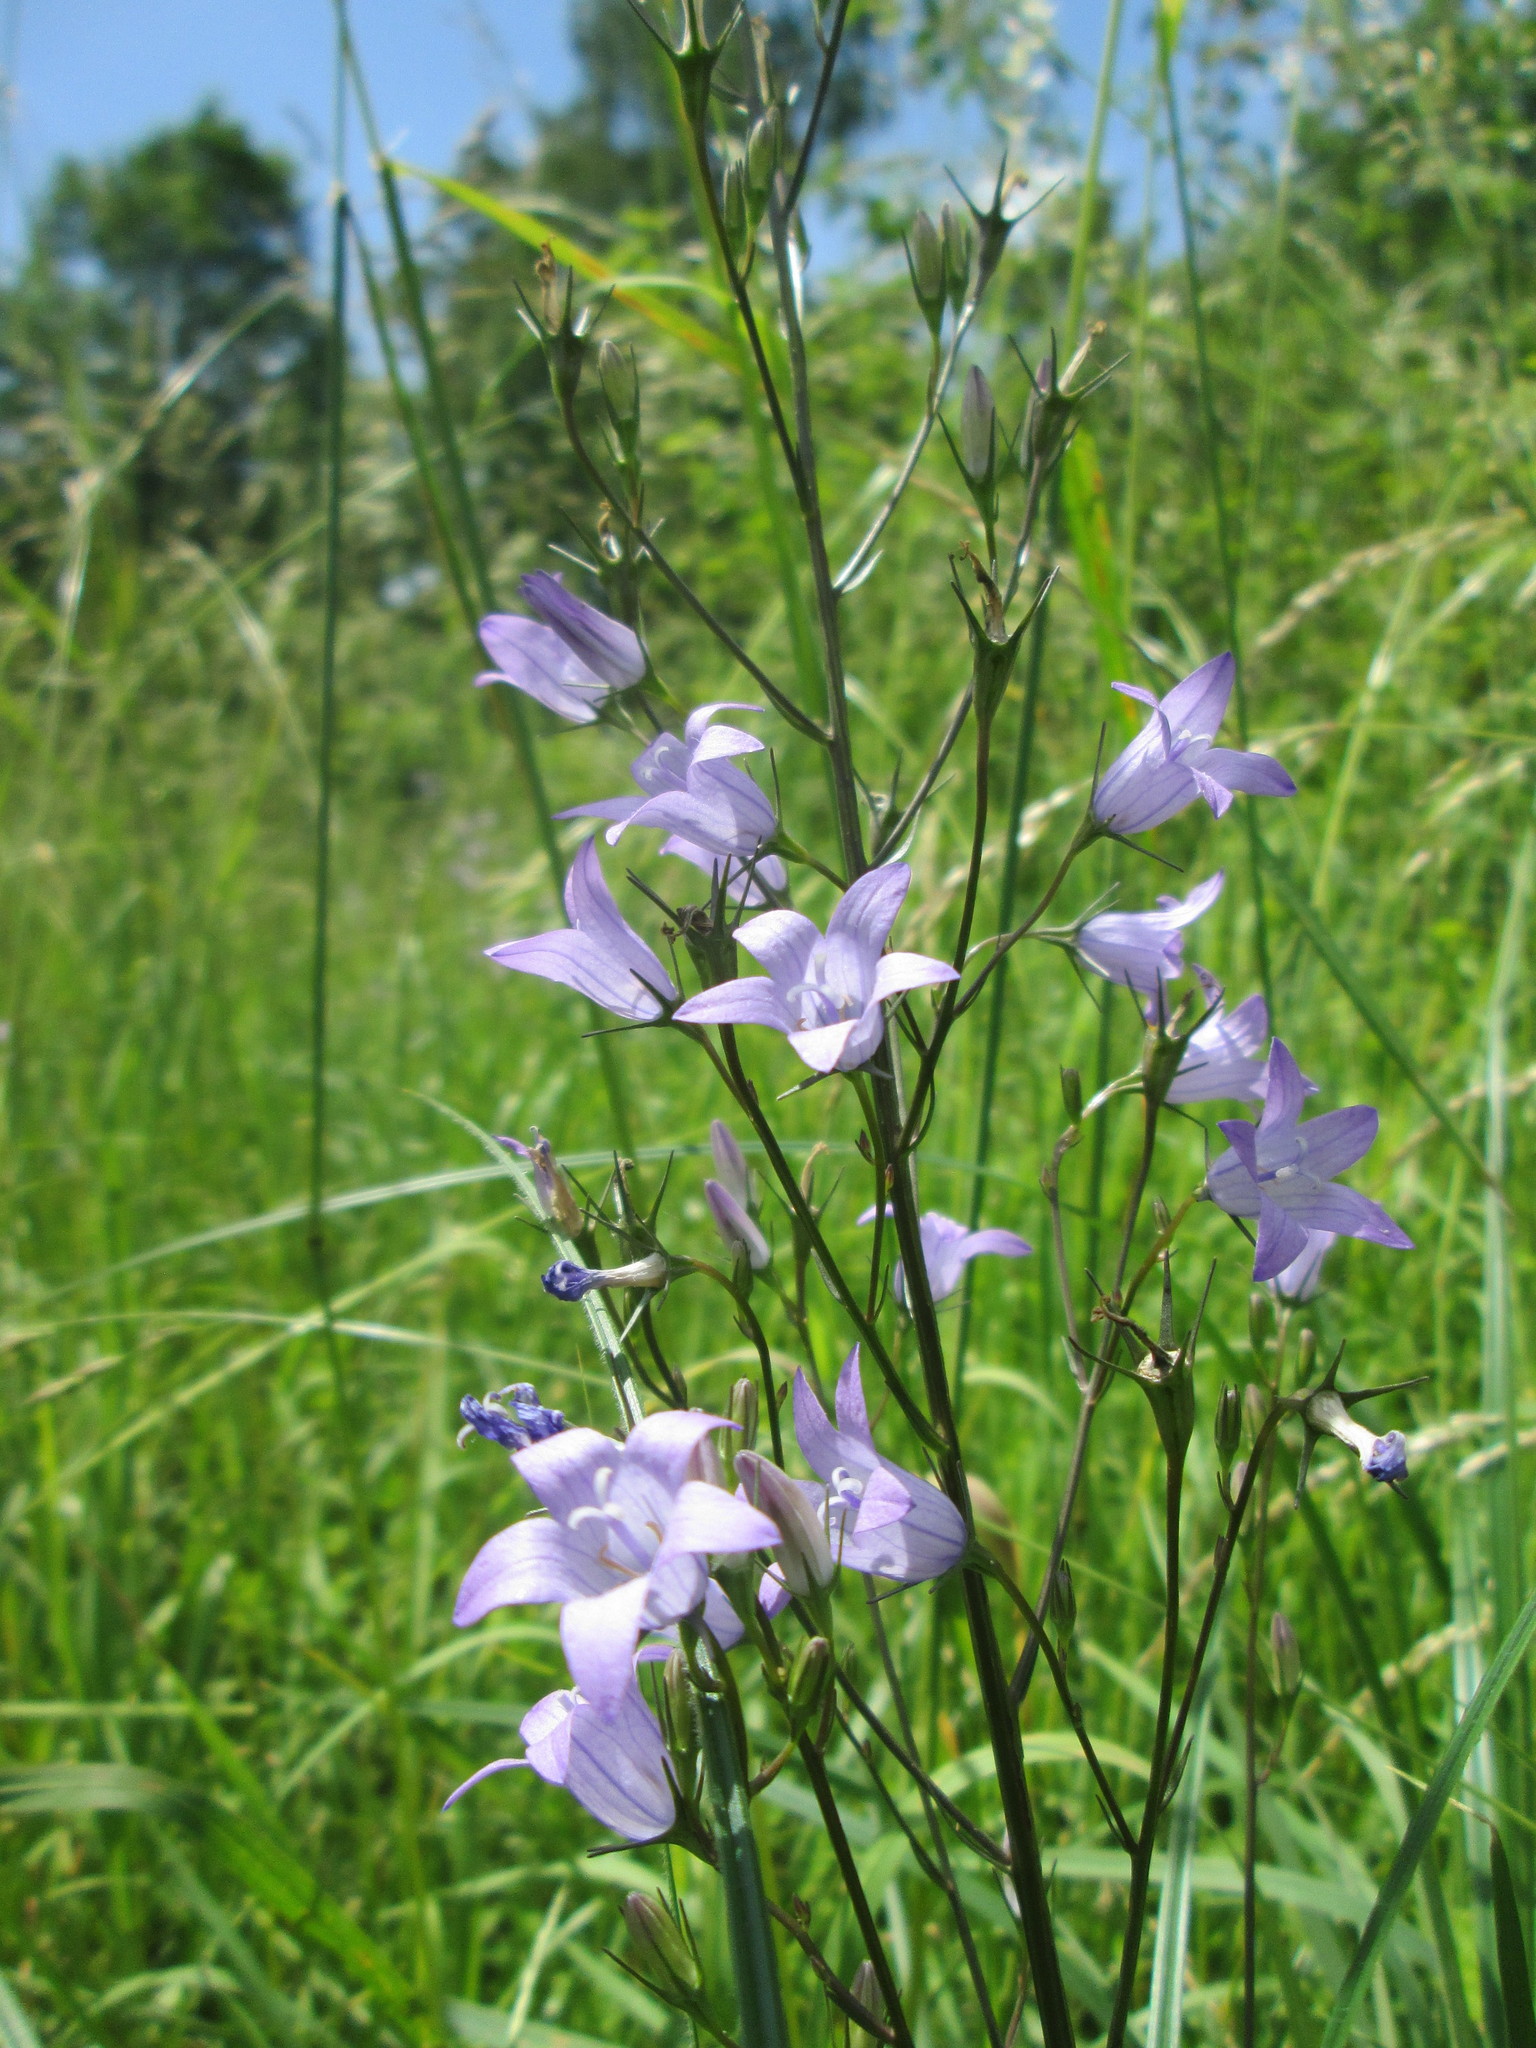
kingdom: Plantae
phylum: Tracheophyta
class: Magnoliopsida
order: Asterales
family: Campanulaceae
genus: Campanula
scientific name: Campanula rapunculus
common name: Rampion bellflower
